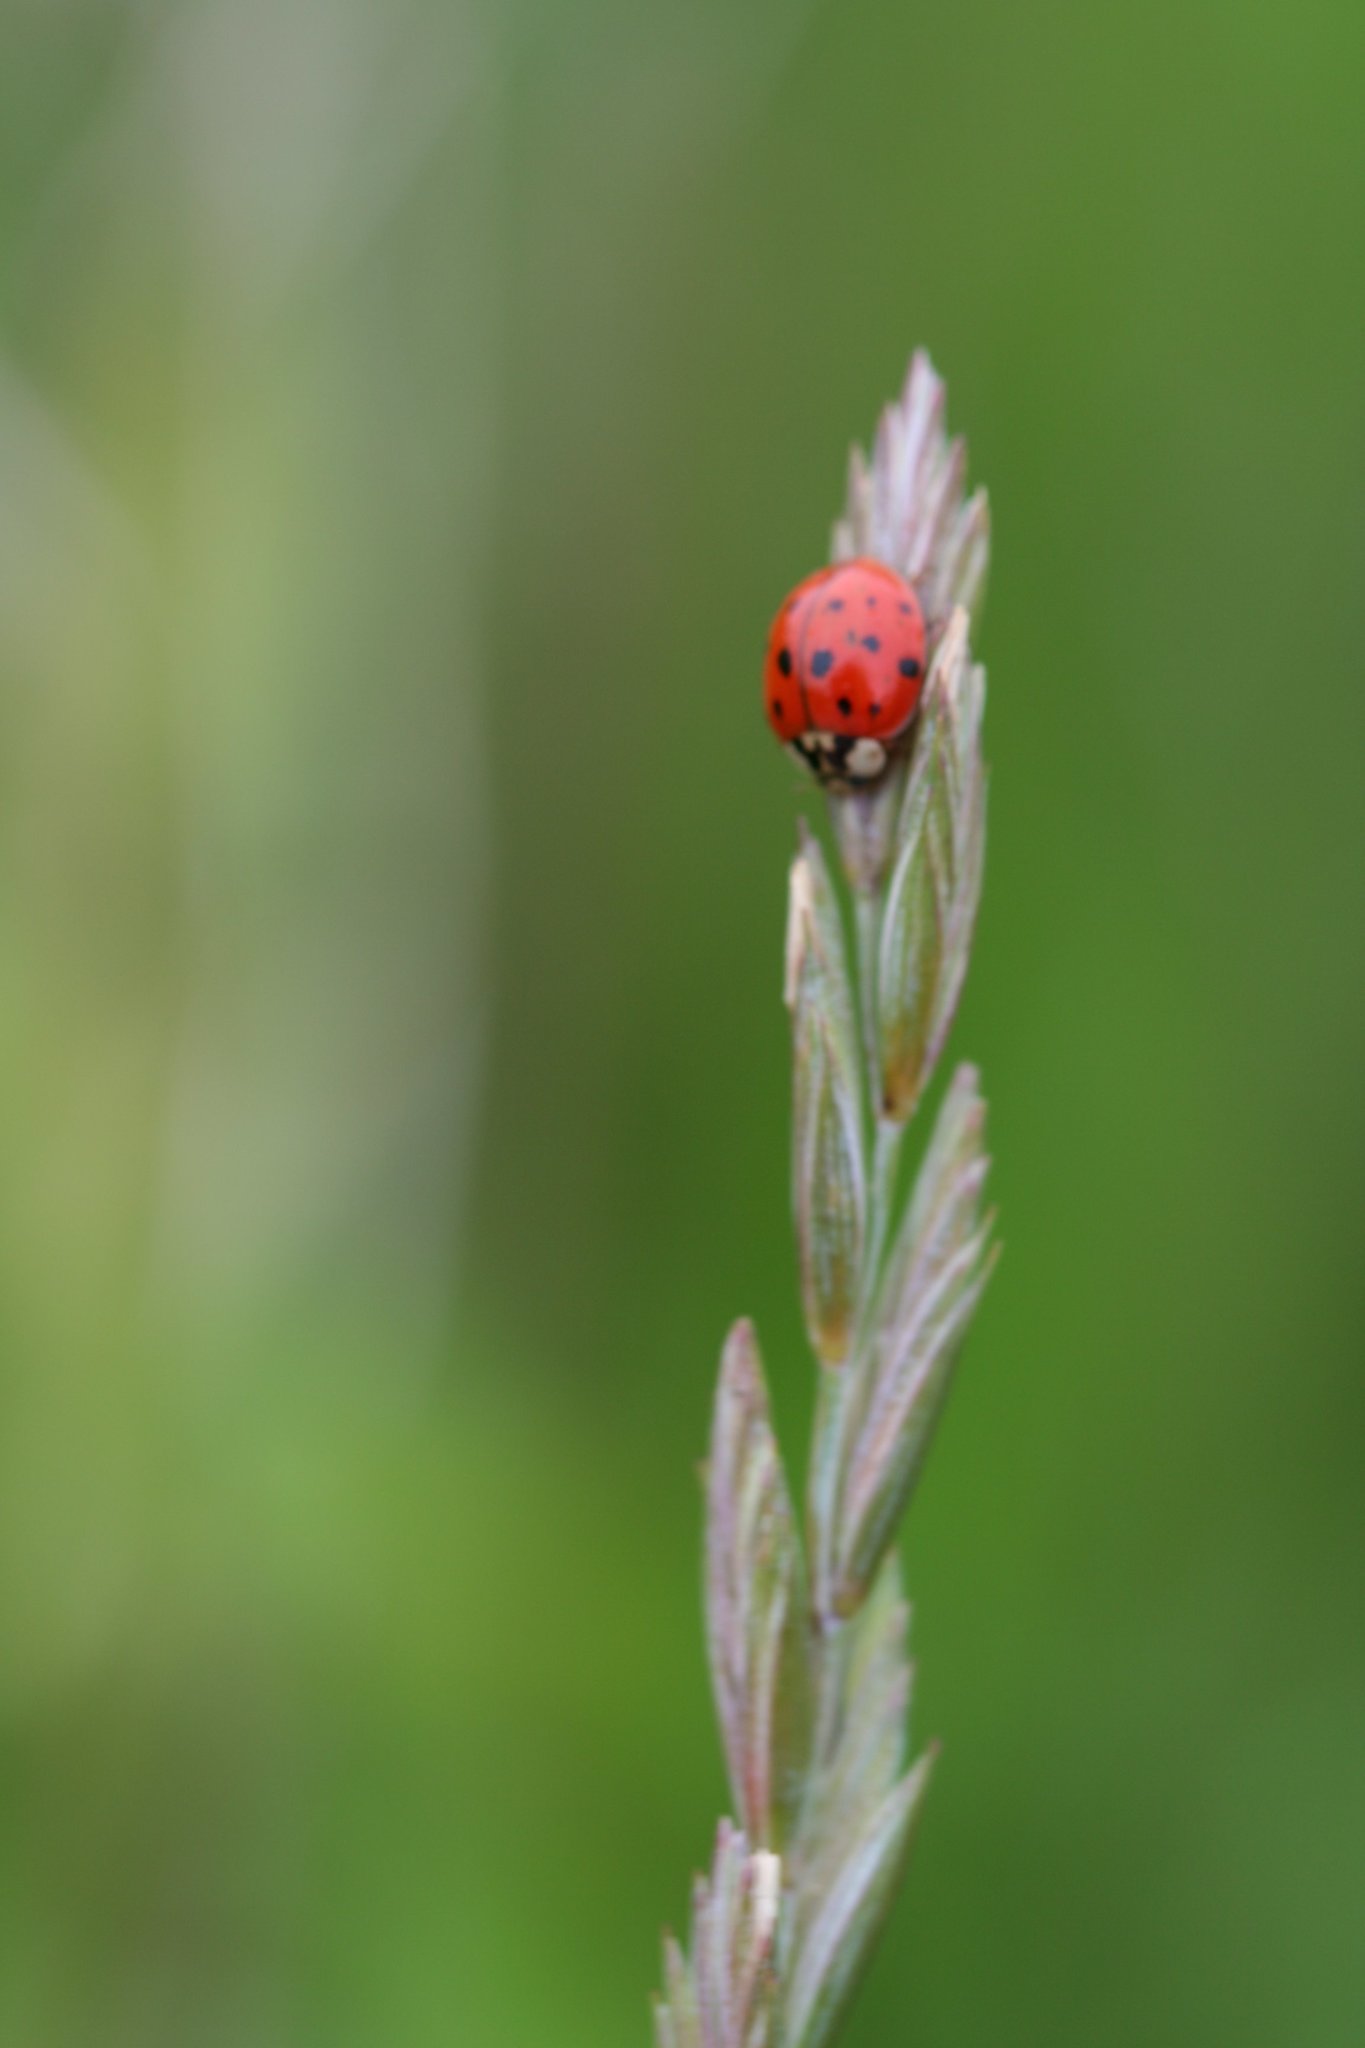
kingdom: Animalia
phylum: Arthropoda
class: Insecta
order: Coleoptera
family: Coccinellidae
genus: Harmonia
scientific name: Harmonia axyridis
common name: Harlequin ladybird
